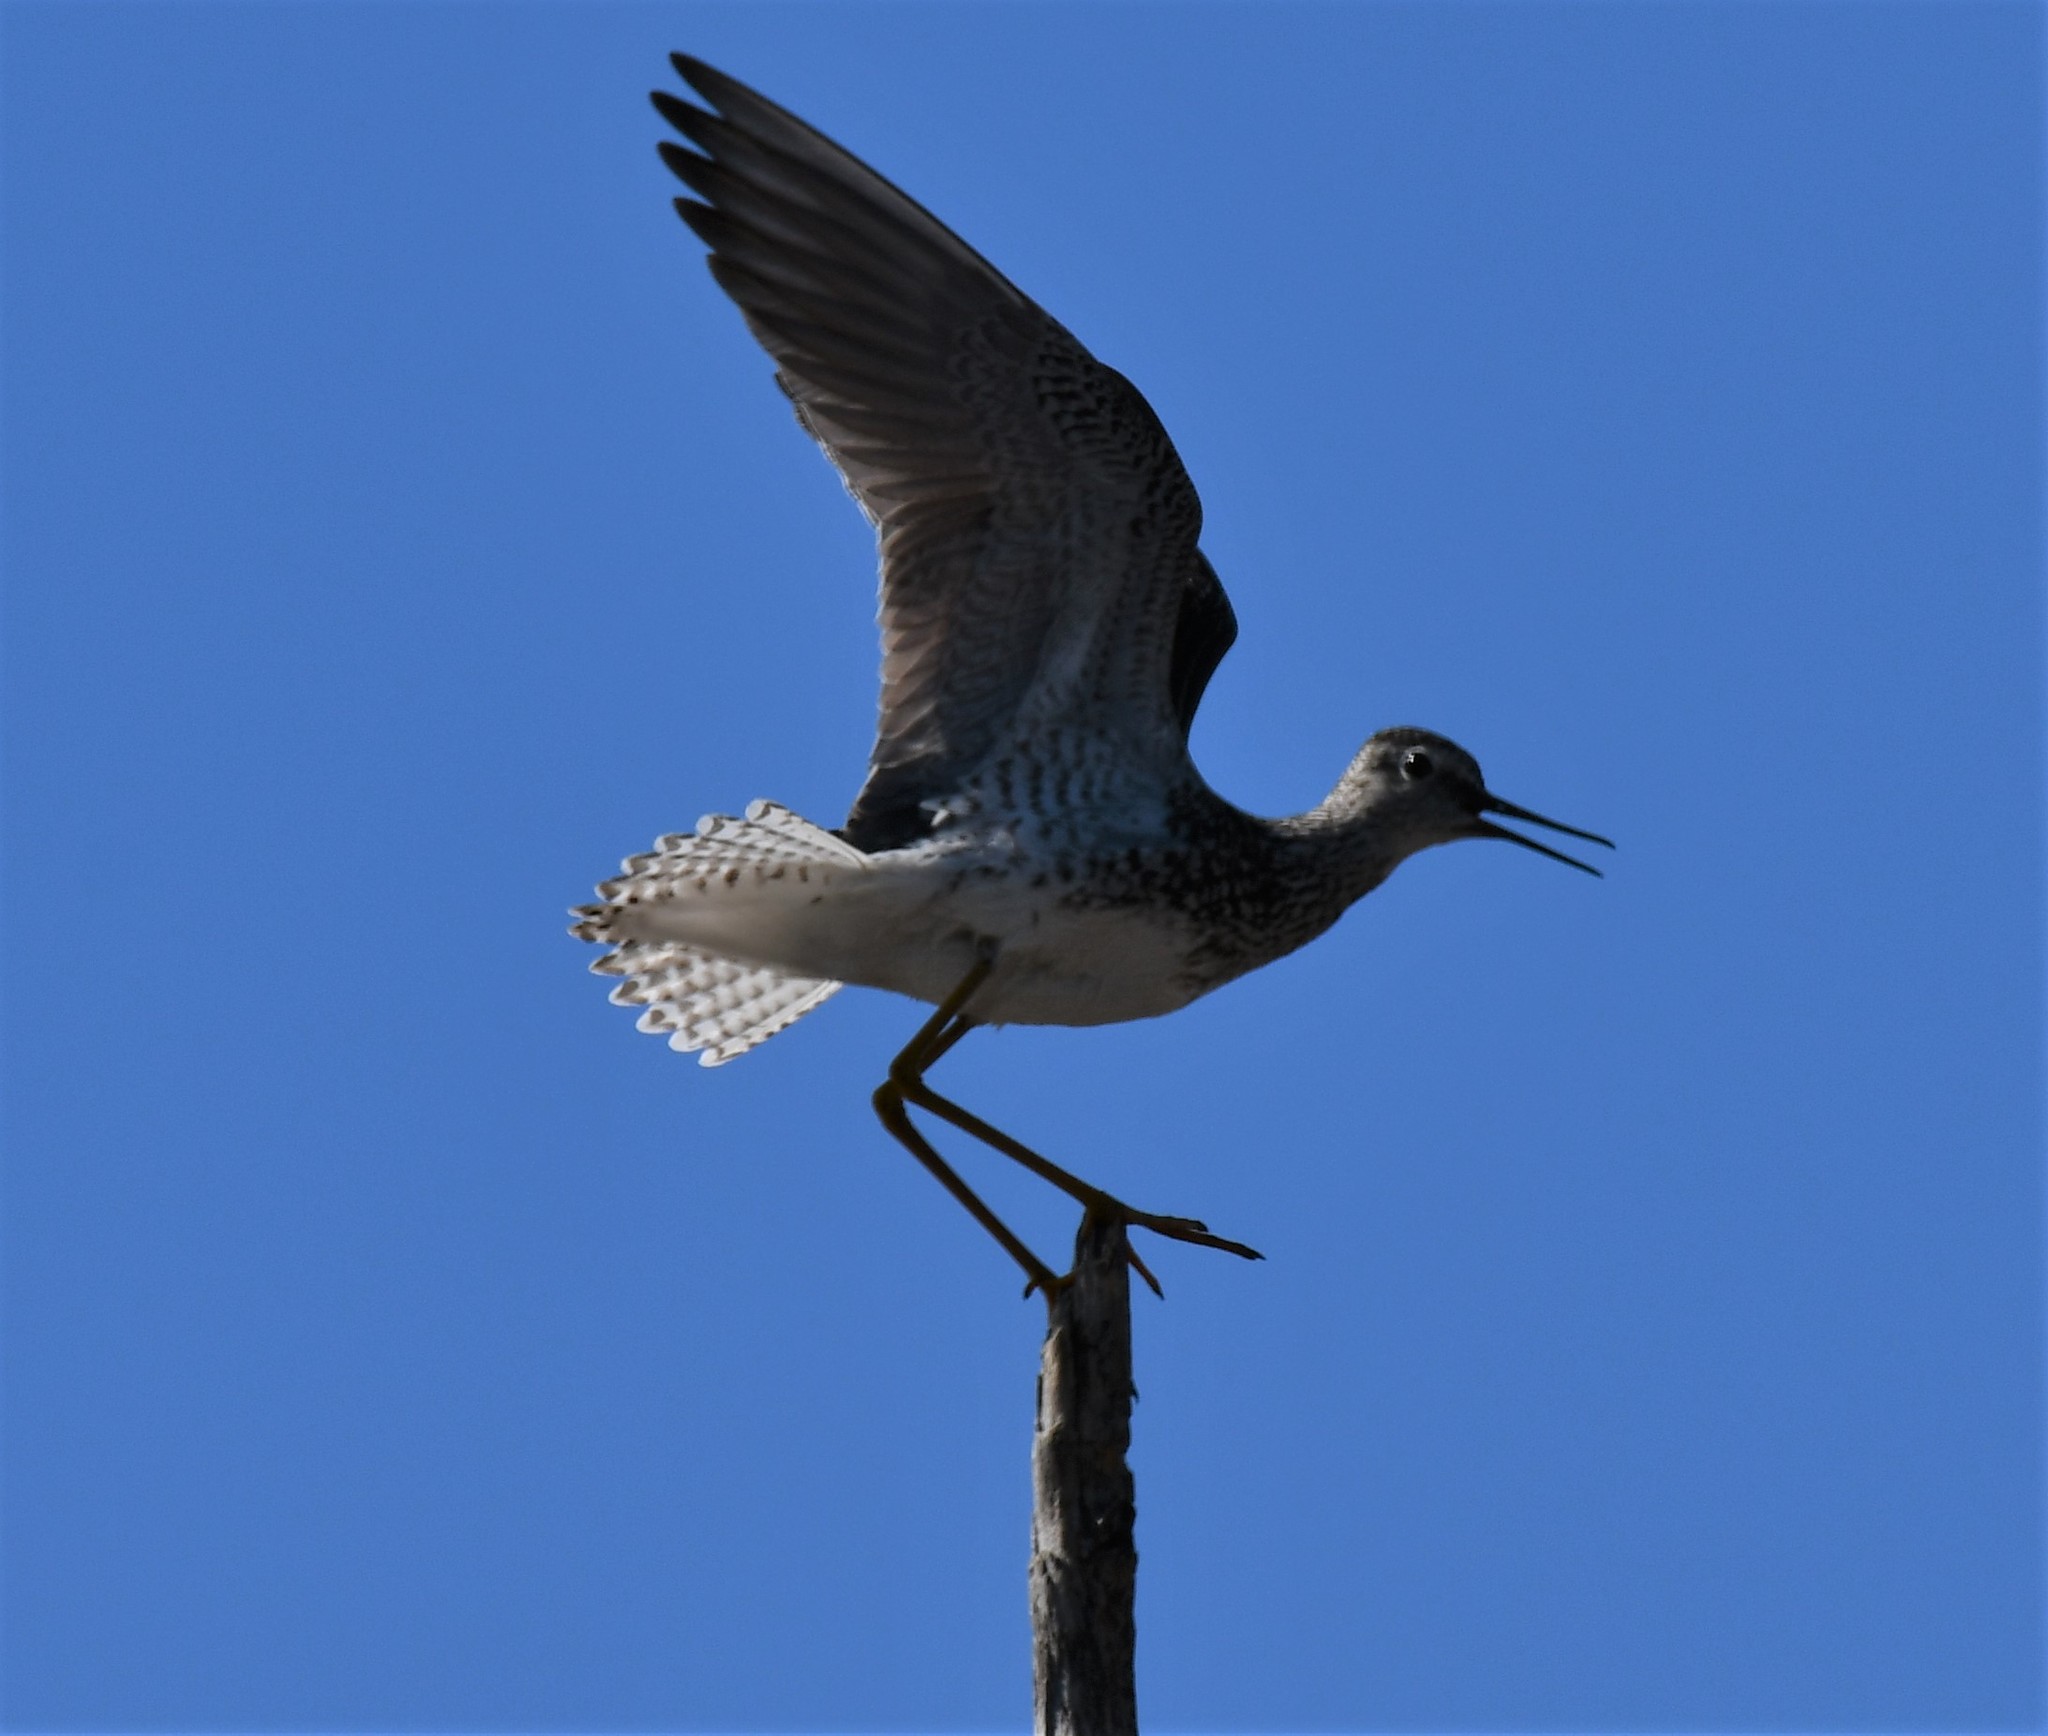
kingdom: Animalia
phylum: Chordata
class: Aves
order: Charadriiformes
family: Scolopacidae
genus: Tringa
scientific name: Tringa flavipes
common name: Lesser yellowlegs
